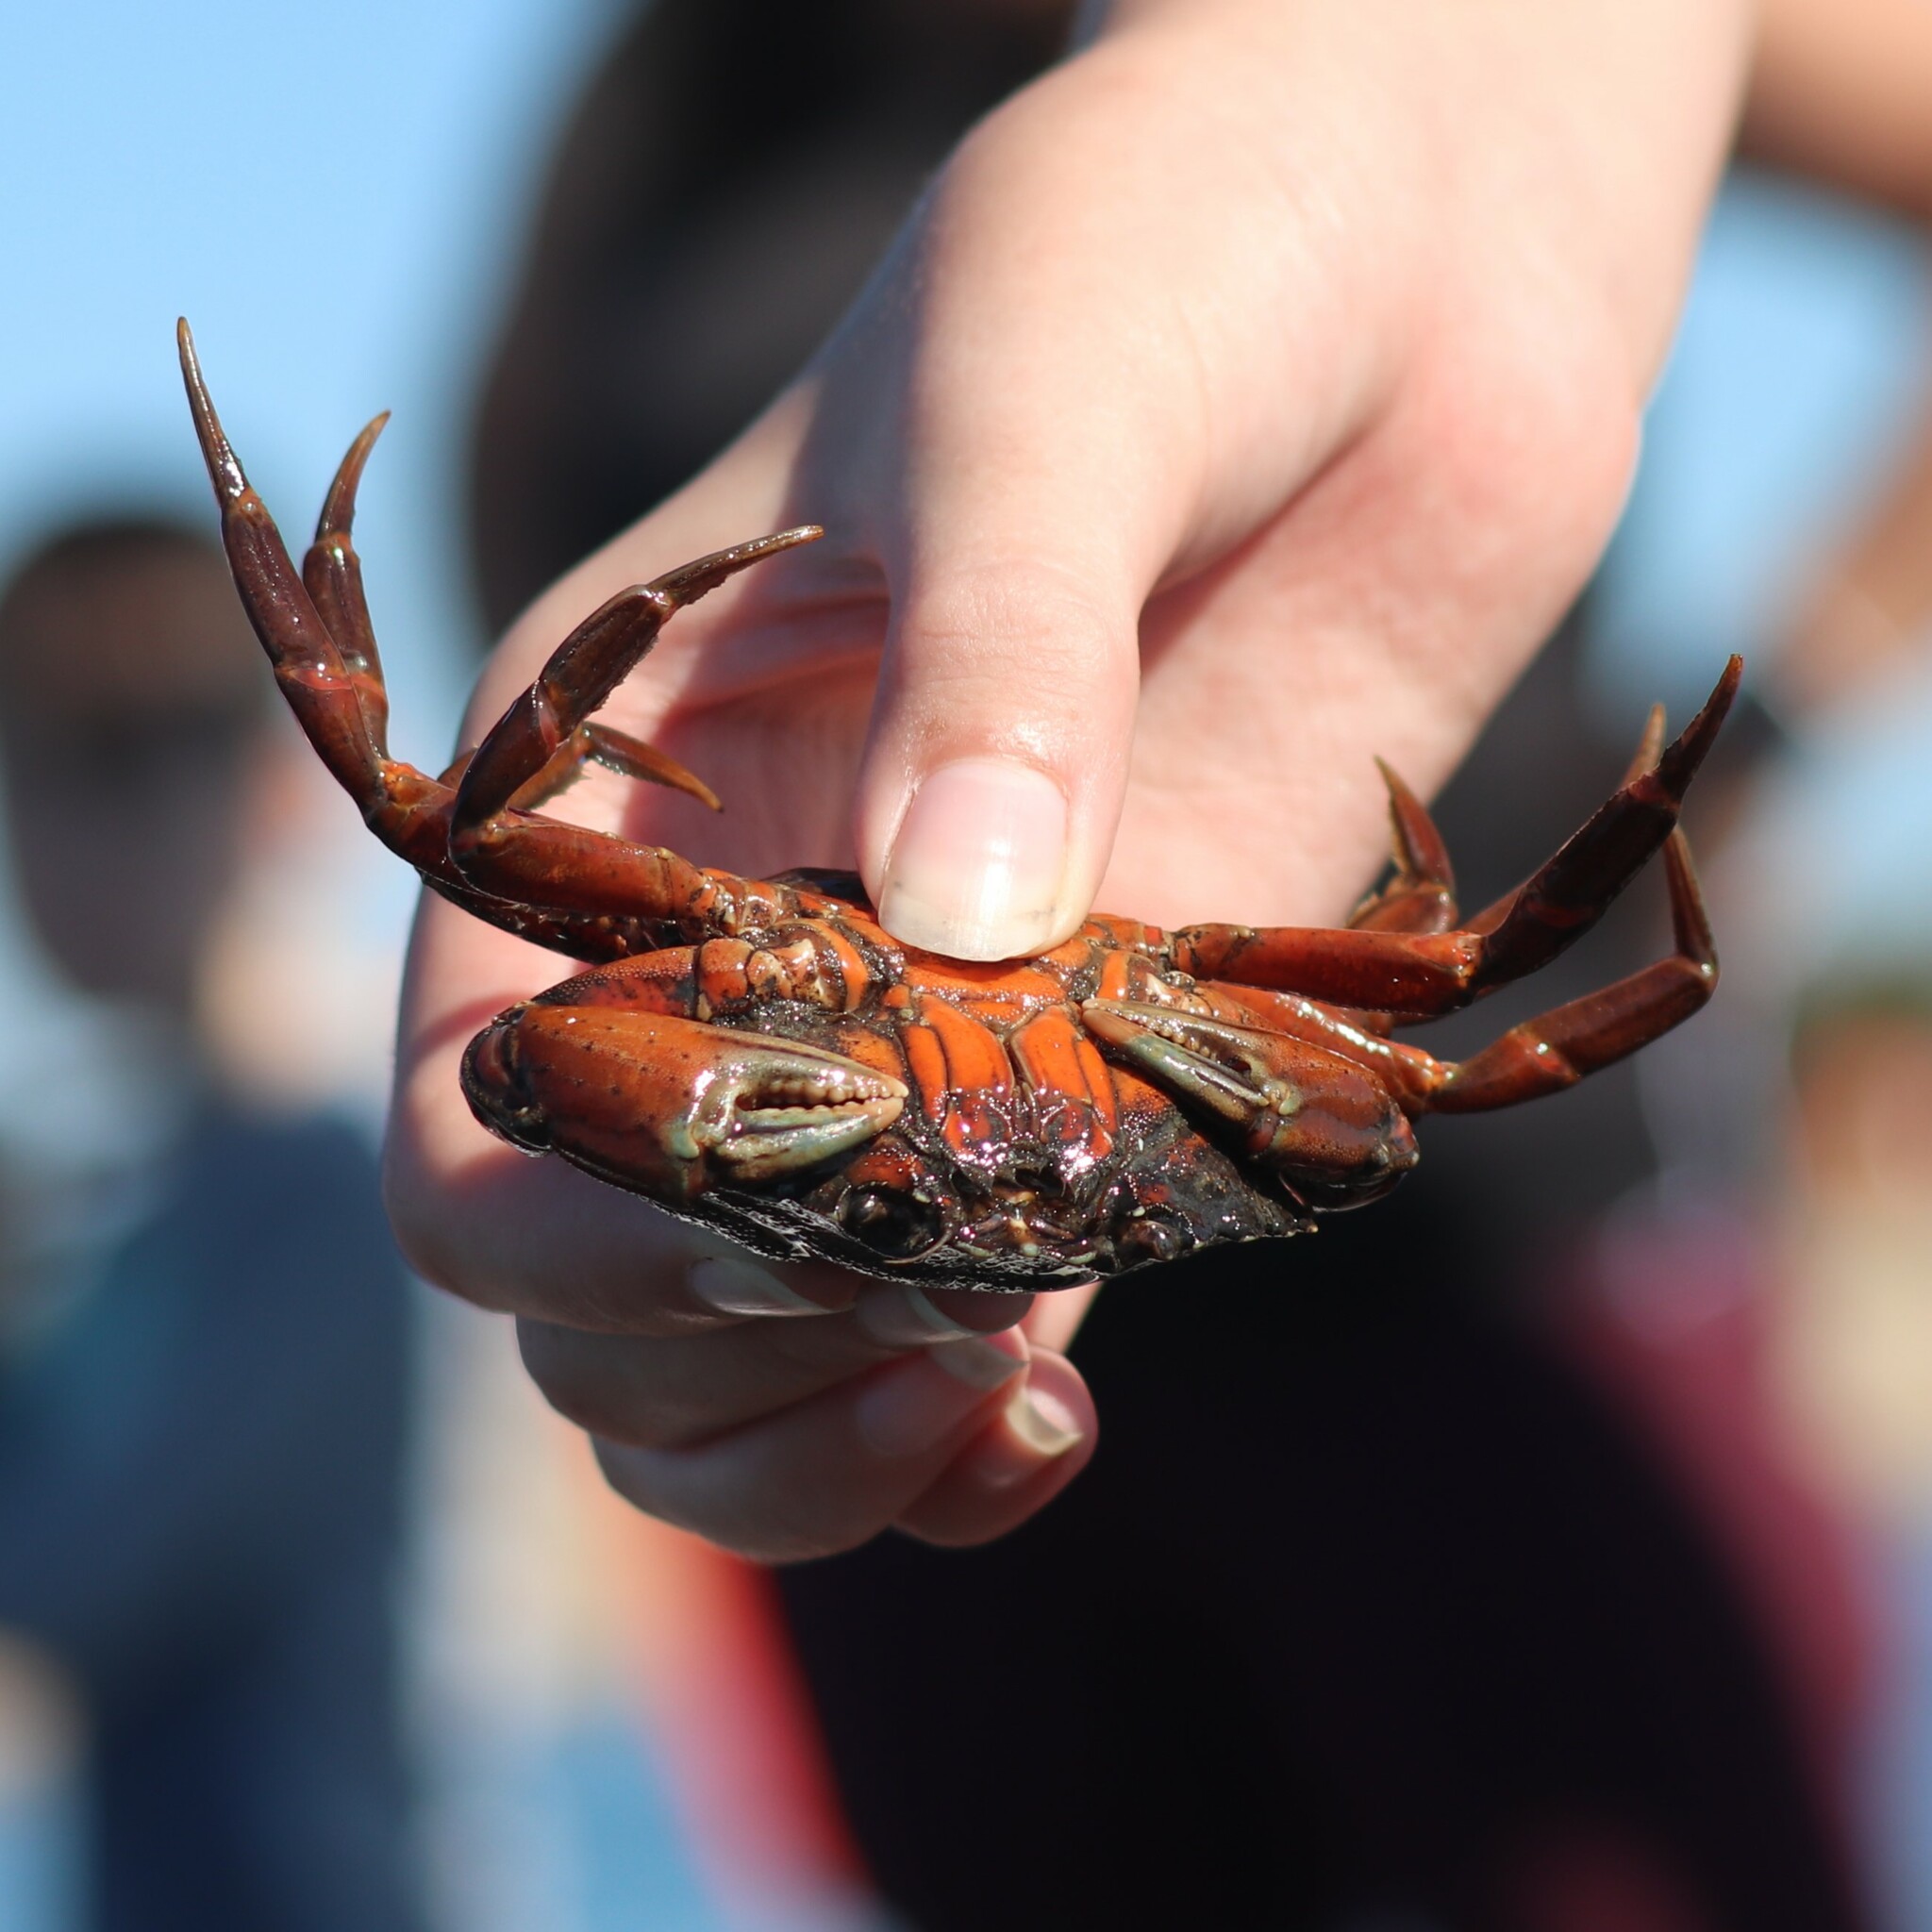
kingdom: Animalia
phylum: Arthropoda
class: Malacostraca
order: Decapoda
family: Carcinidae
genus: Carcinus
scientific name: Carcinus maenas
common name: European green crab
